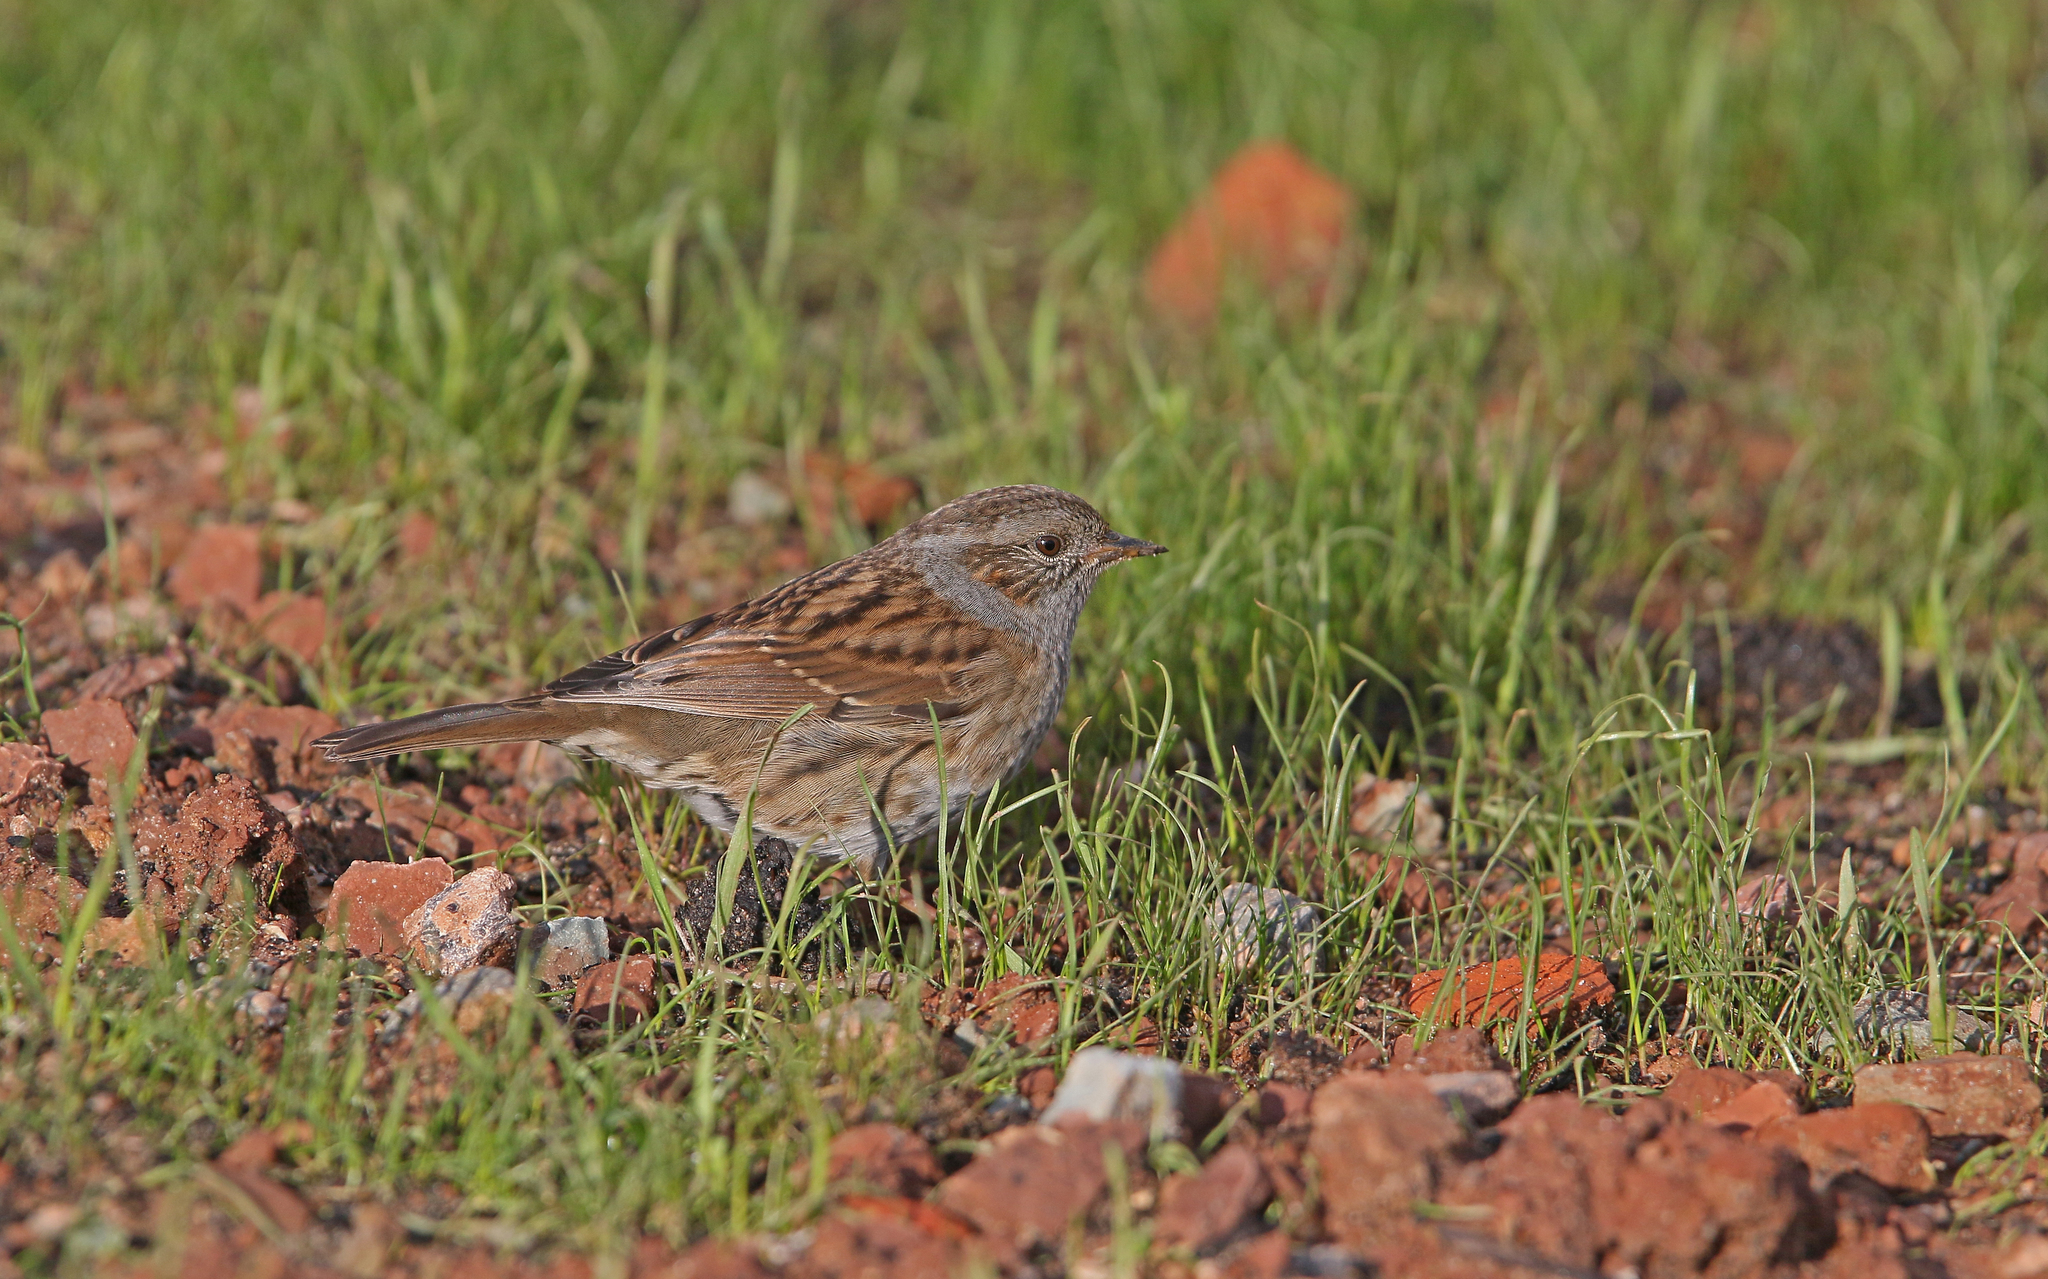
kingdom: Animalia
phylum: Chordata
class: Aves
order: Passeriformes
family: Prunellidae
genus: Prunella
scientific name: Prunella modularis
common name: Dunnock
